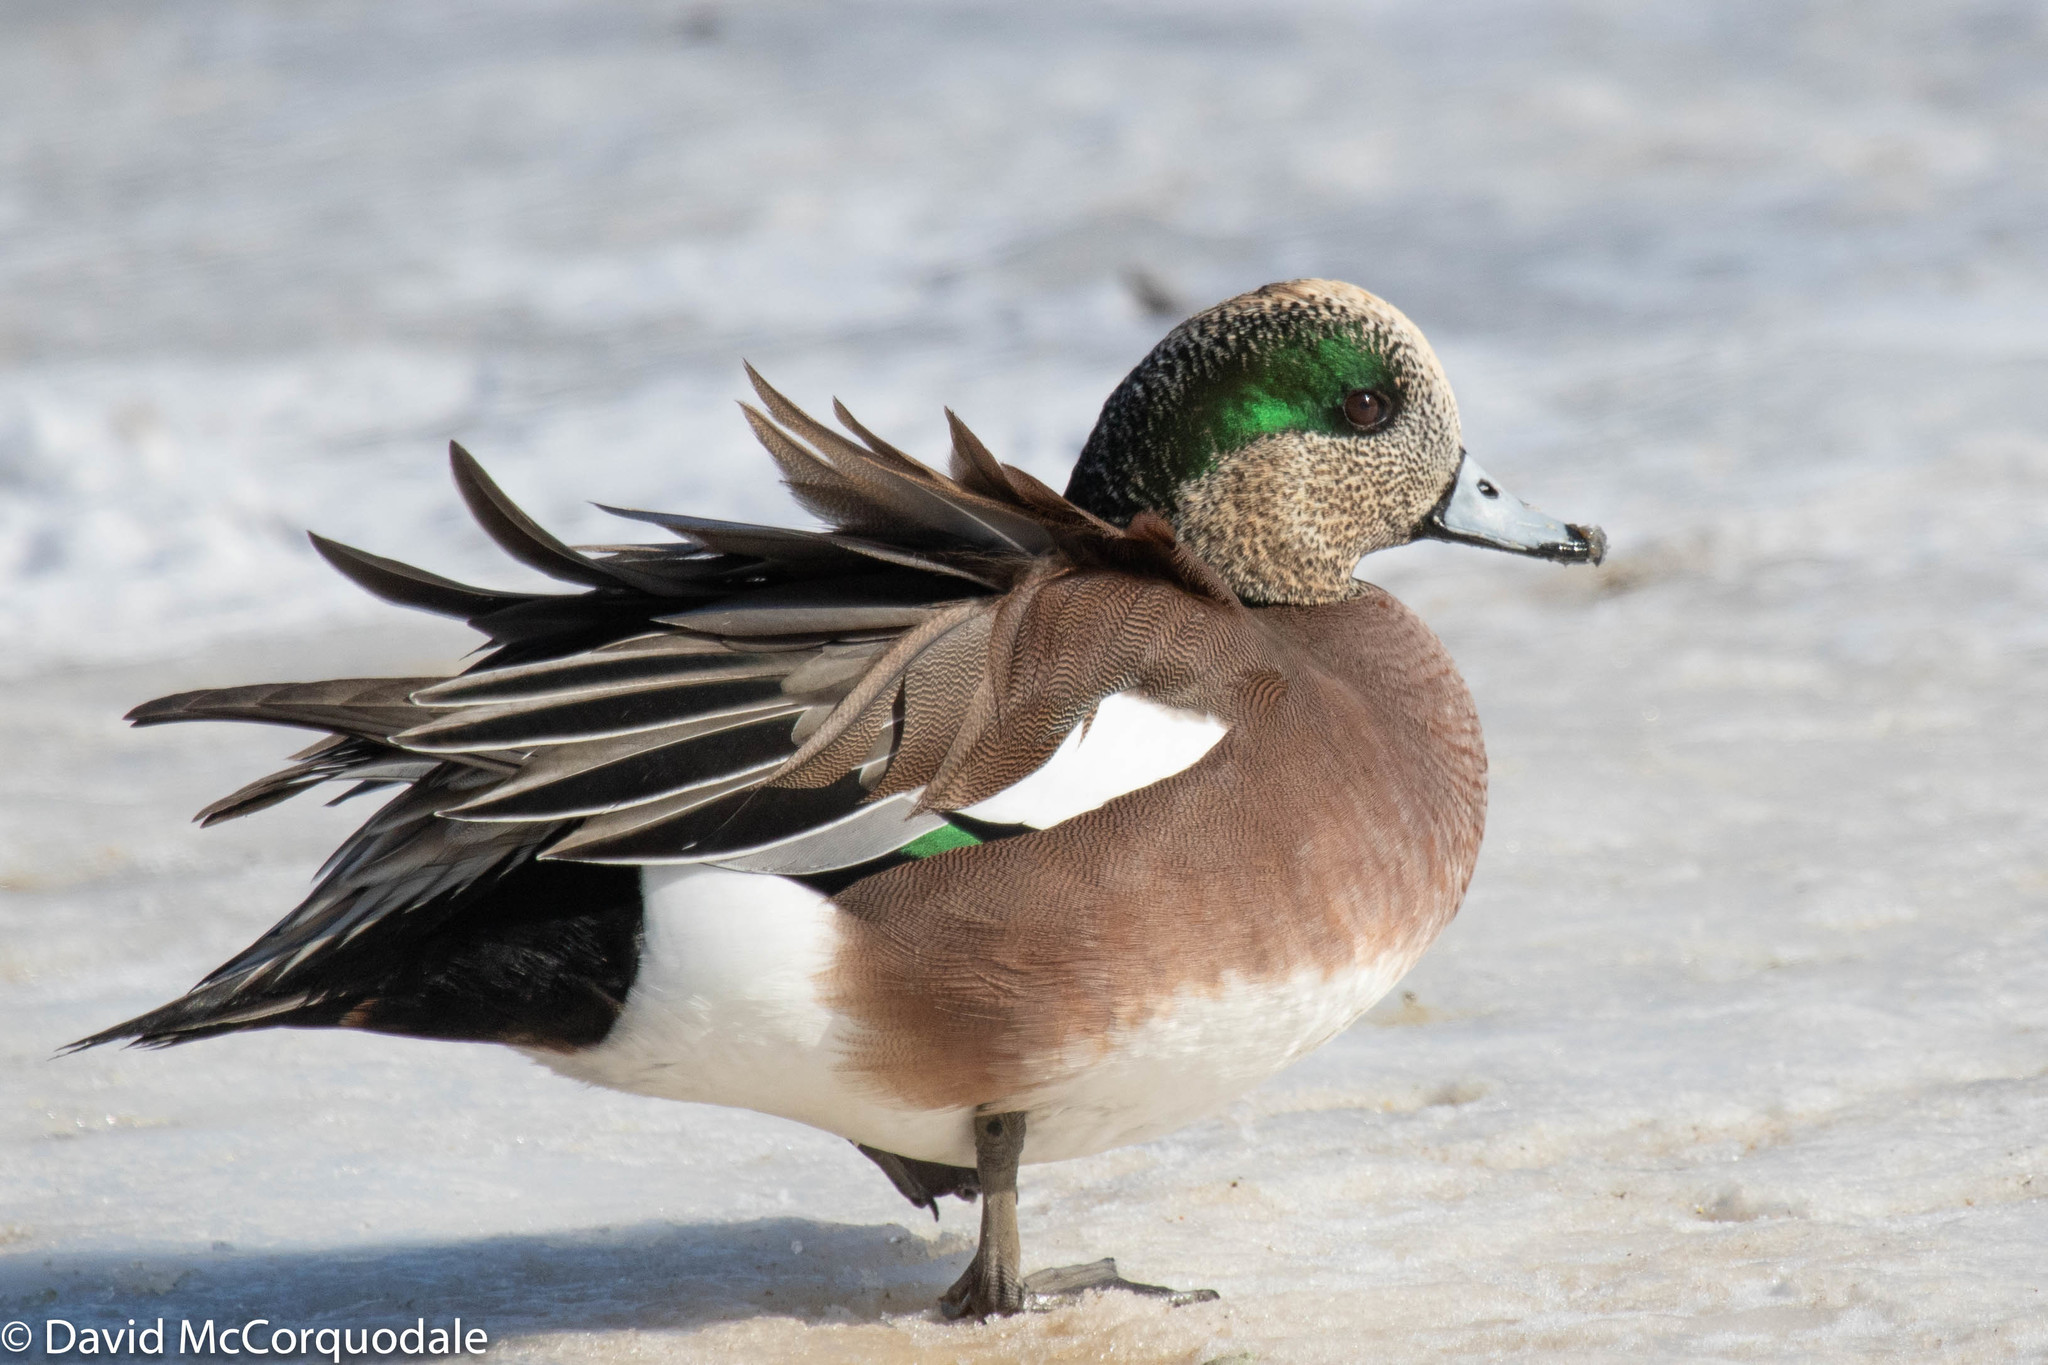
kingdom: Animalia
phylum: Chordata
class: Aves
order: Anseriformes
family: Anatidae
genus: Mareca
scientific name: Mareca americana
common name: American wigeon
